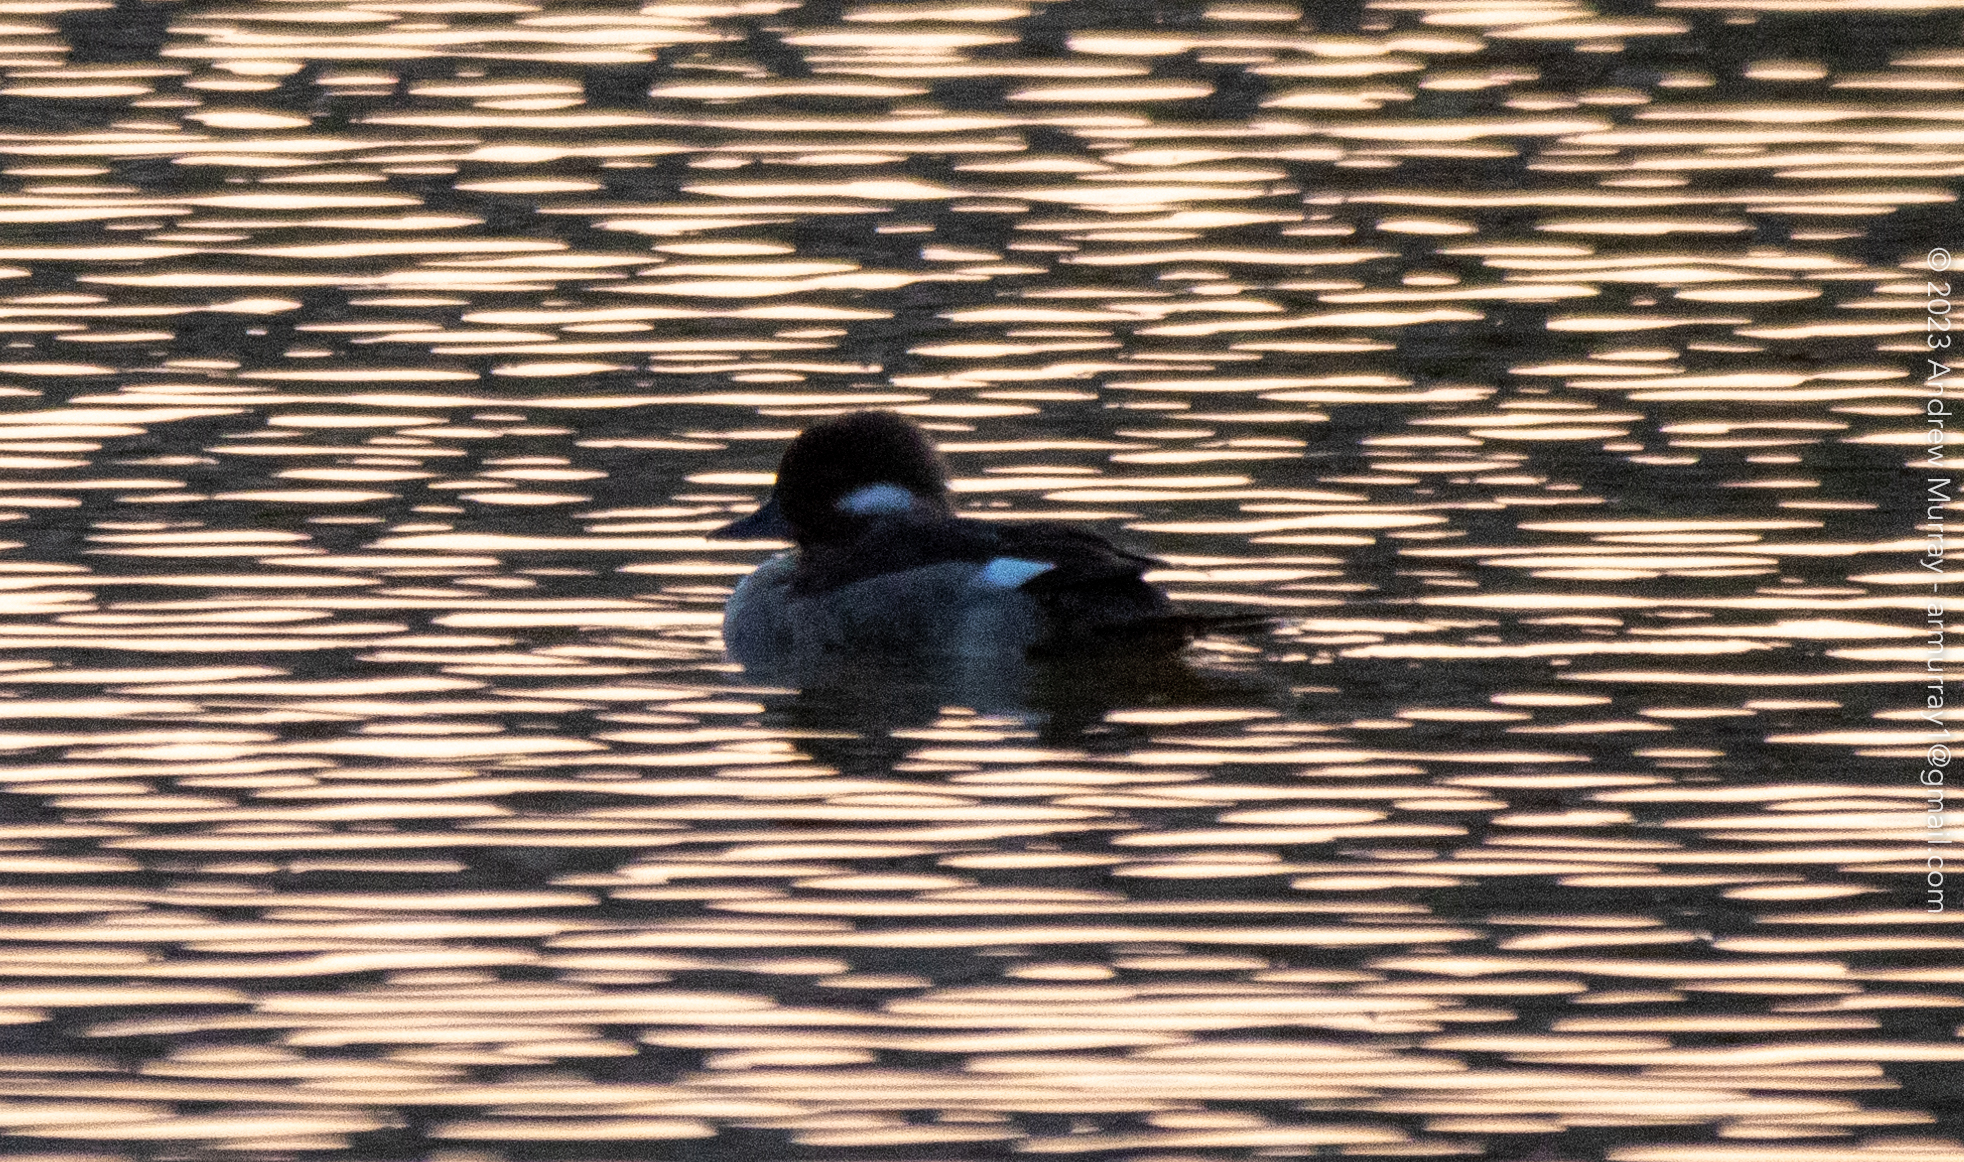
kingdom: Animalia
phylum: Chordata
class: Aves
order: Anseriformes
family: Anatidae
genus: Bucephala
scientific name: Bucephala albeola
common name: Bufflehead
